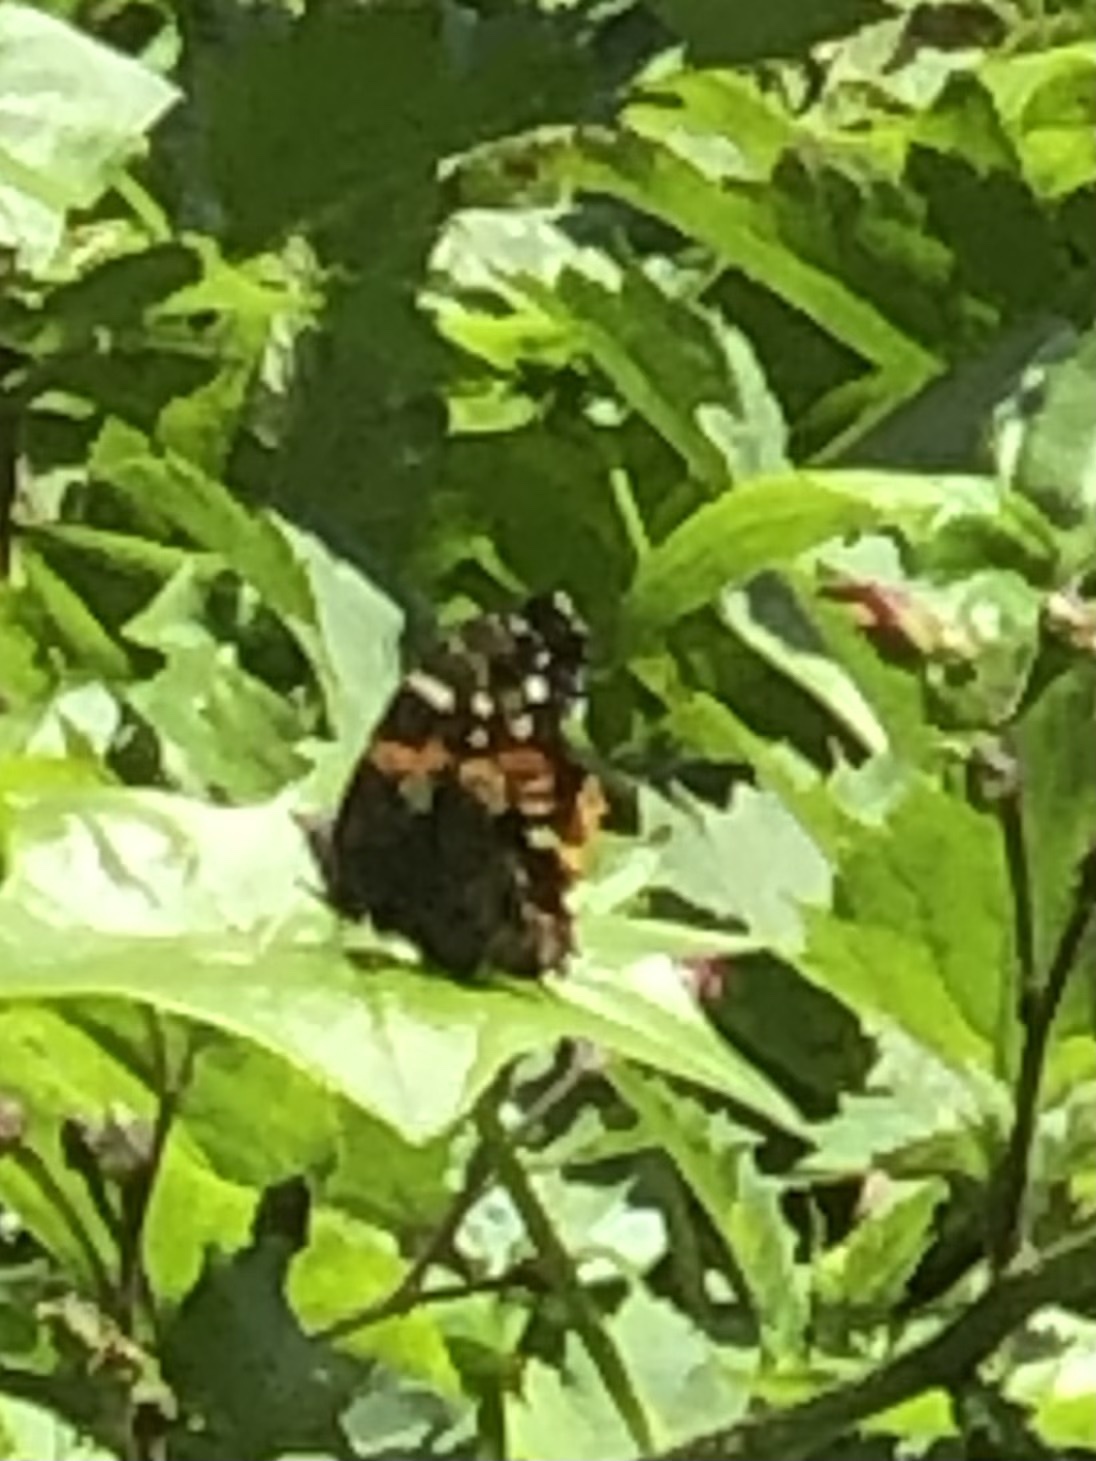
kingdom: Animalia
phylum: Arthropoda
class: Insecta
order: Lepidoptera
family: Nymphalidae
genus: Vanessa
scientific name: Vanessa atalanta
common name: Red admiral
